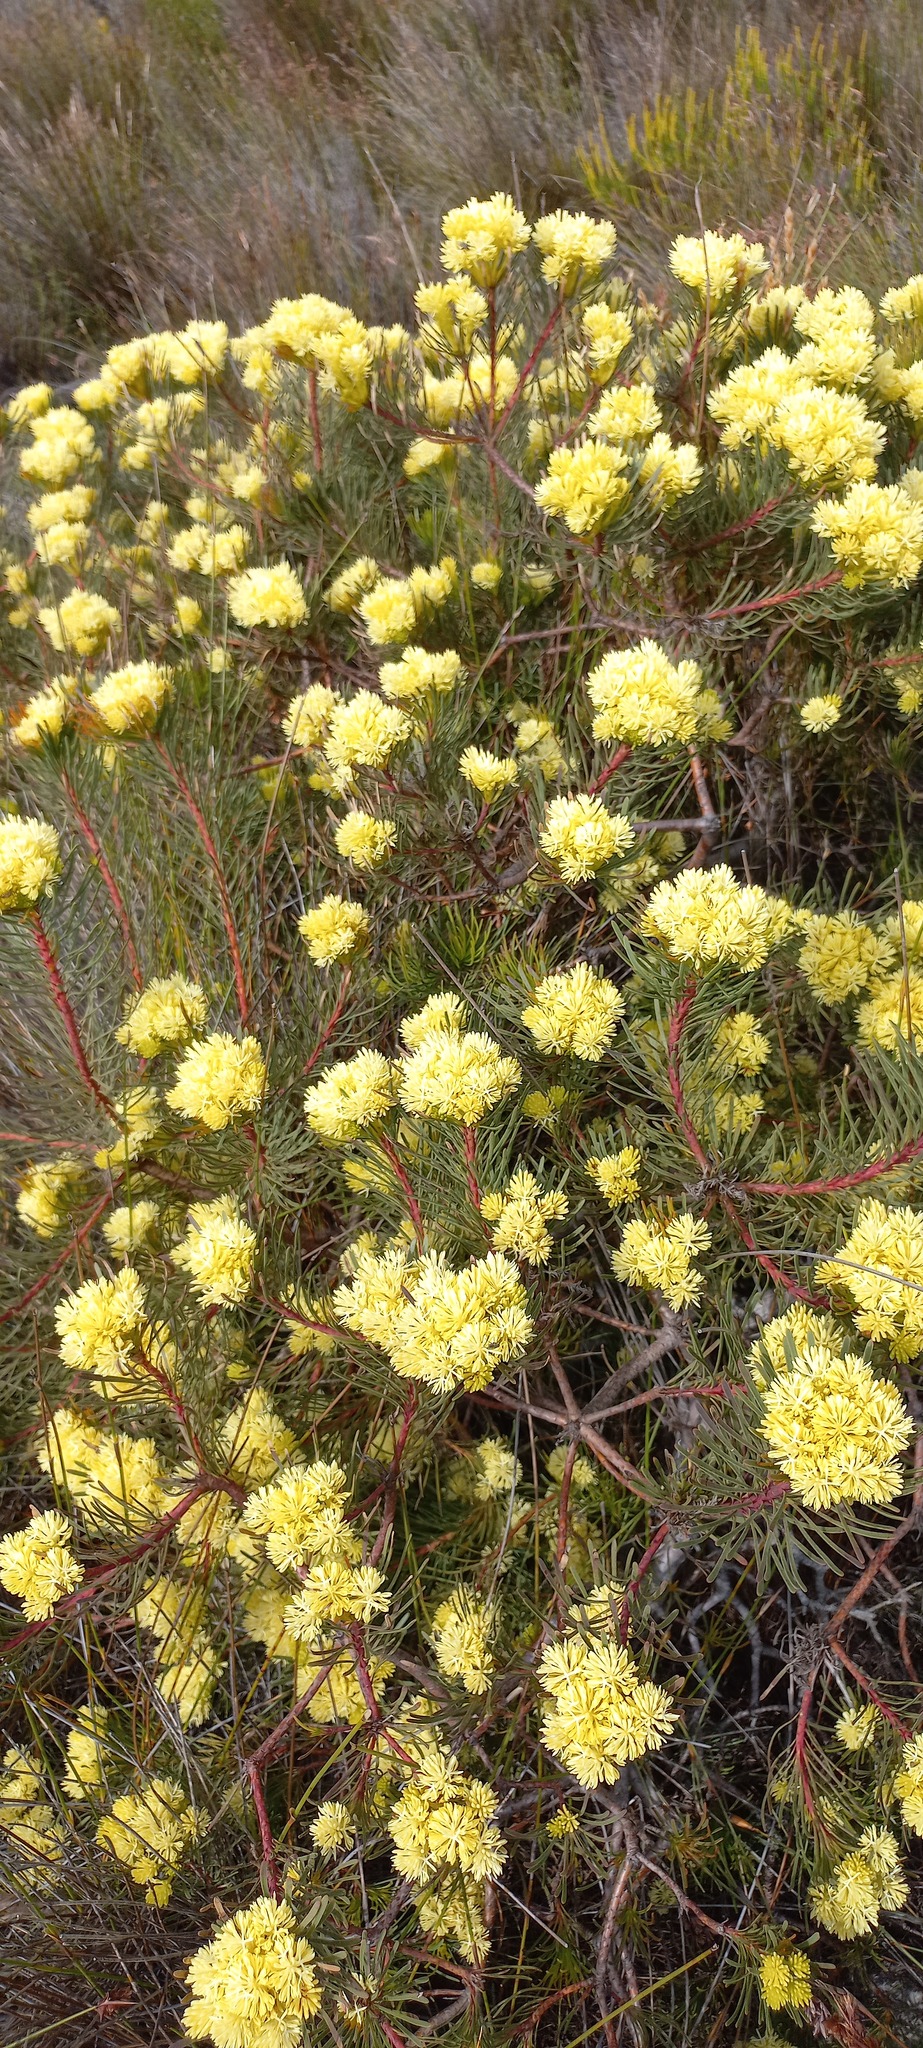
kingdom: Plantae
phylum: Tracheophyta
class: Magnoliopsida
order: Proteales
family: Proteaceae
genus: Aulax
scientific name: Aulax cancellata
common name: Channel-leaf featherbush
